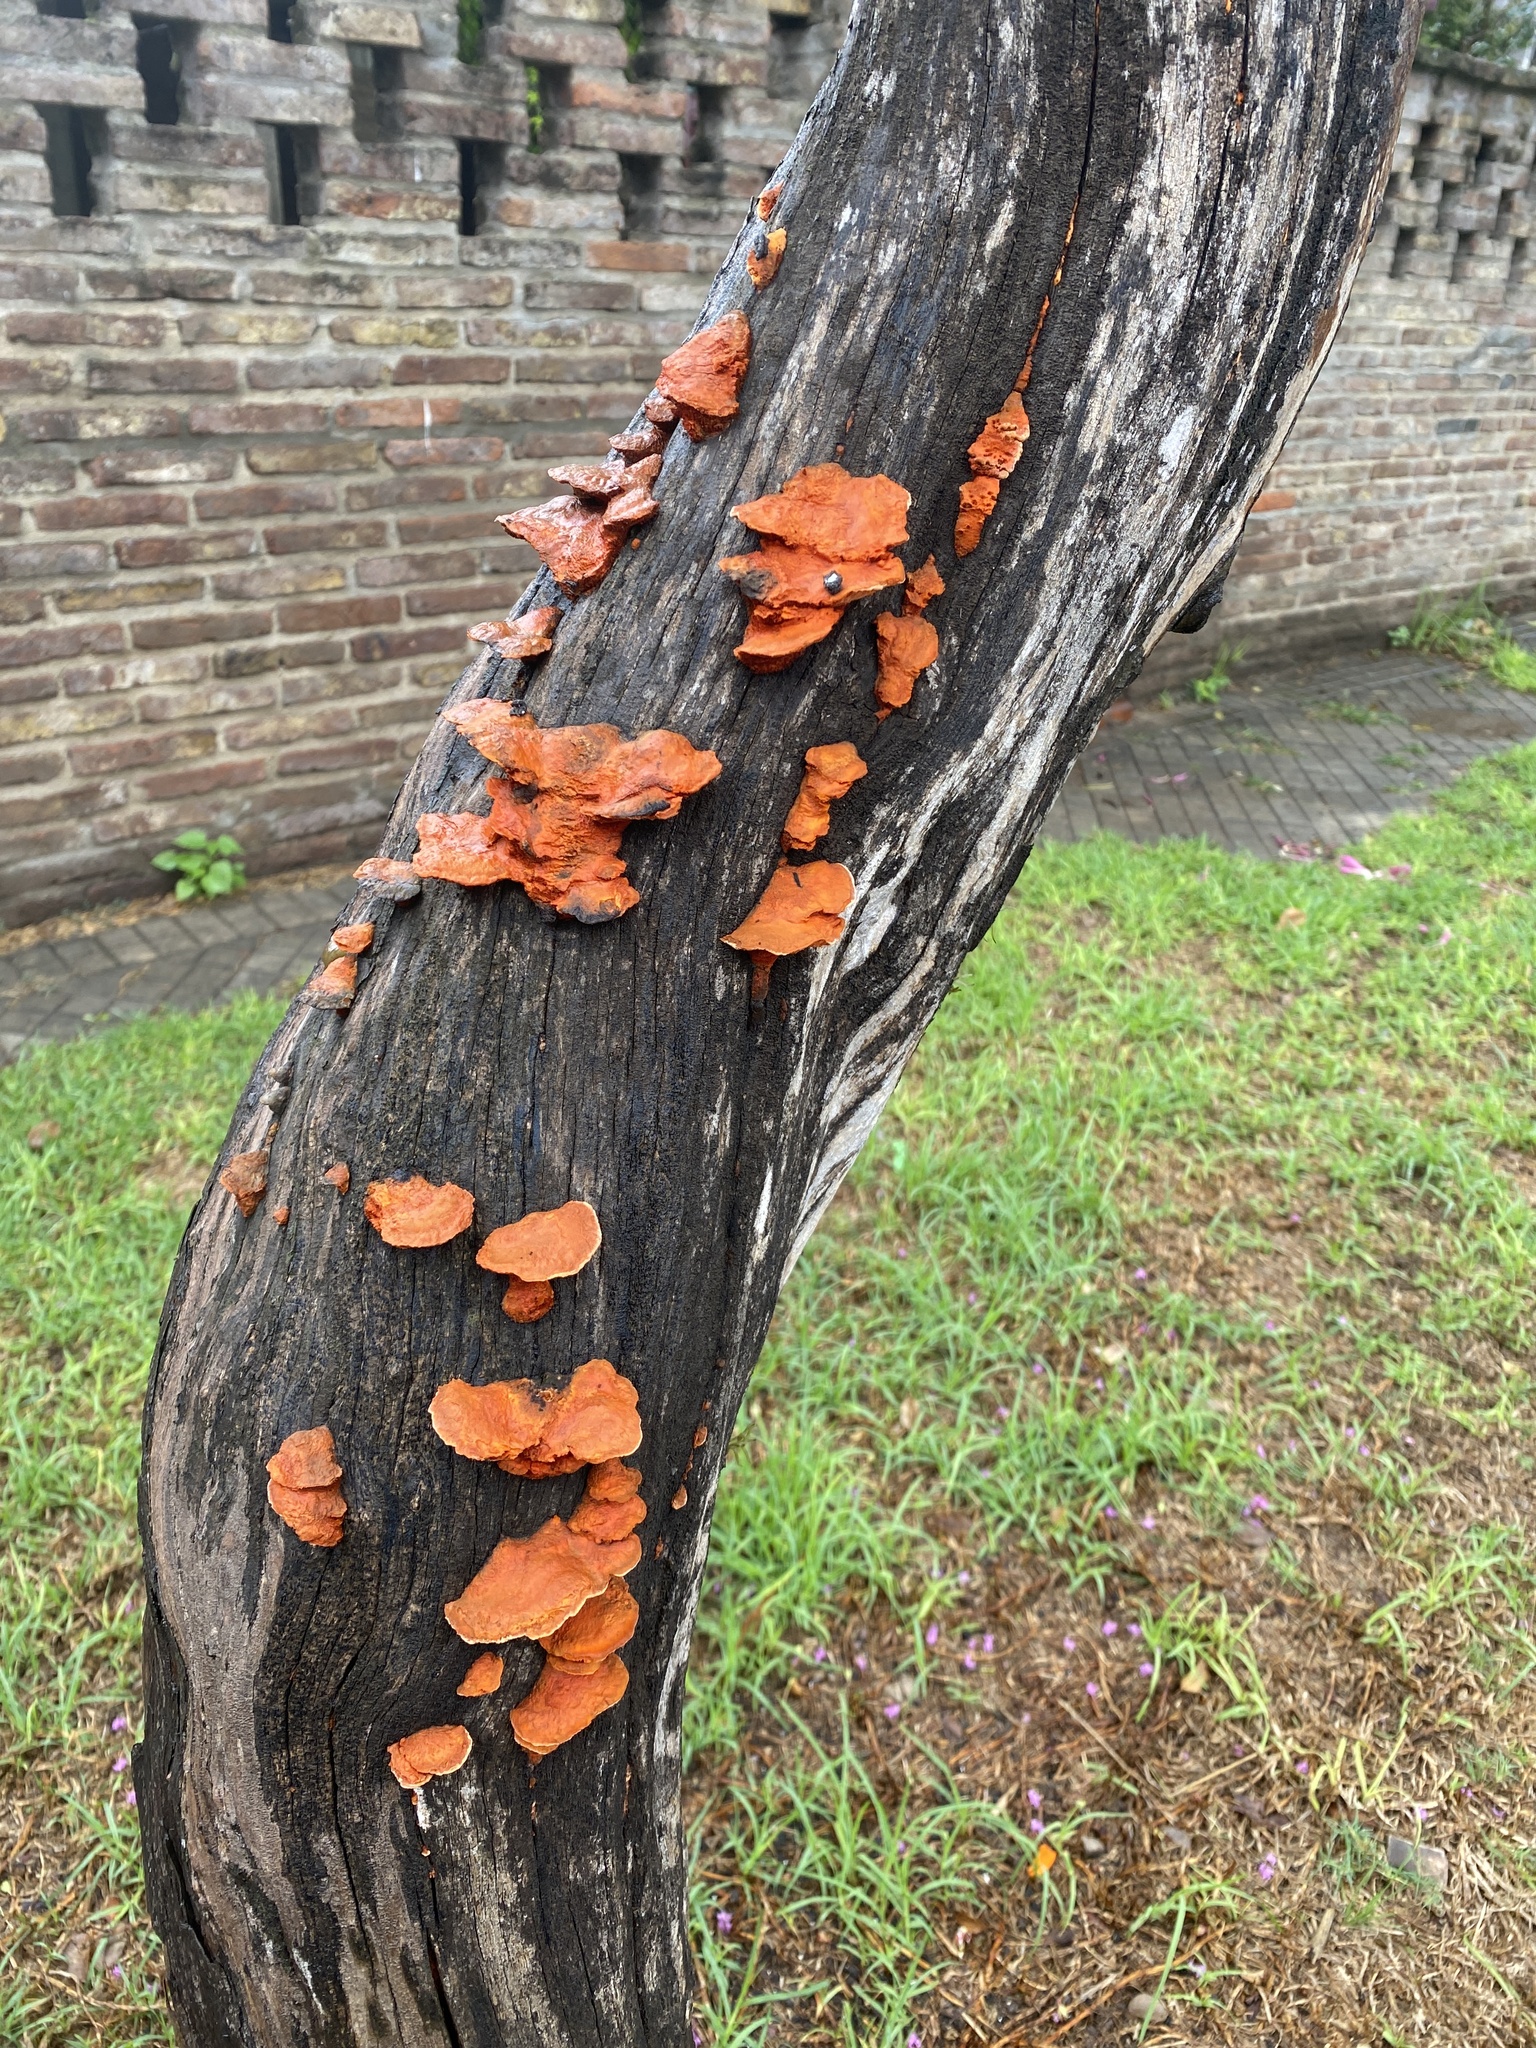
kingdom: Fungi
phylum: Basidiomycota
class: Agaricomycetes
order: Polyporales
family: Polyporaceae
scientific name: Polyporaceae
